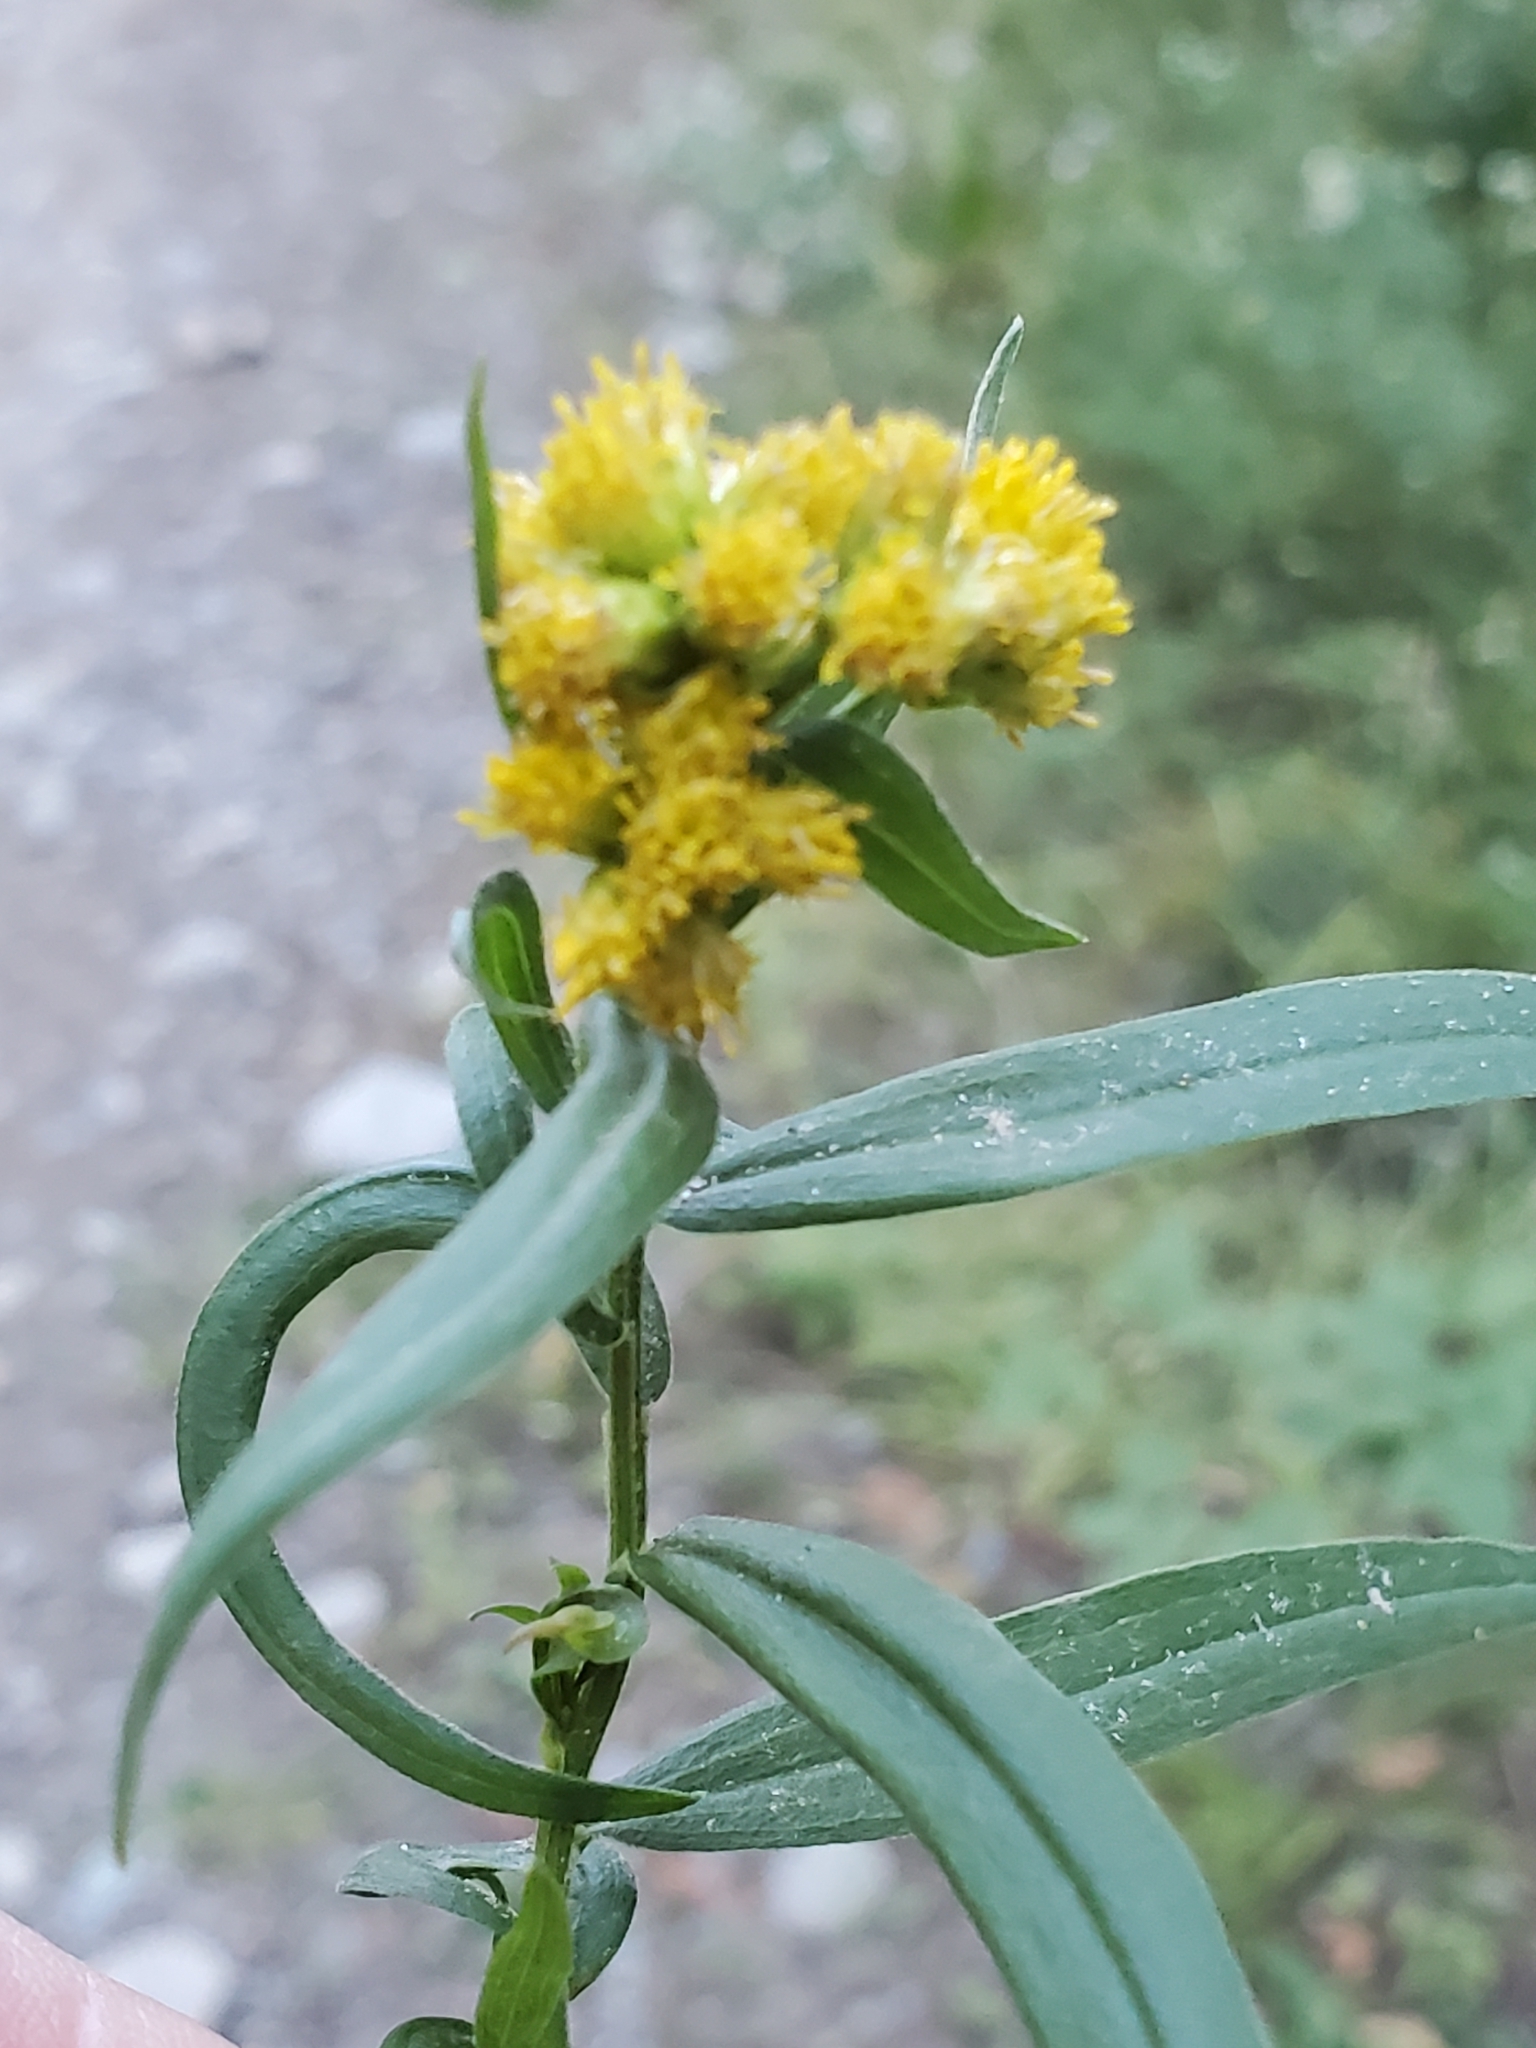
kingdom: Plantae
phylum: Tracheophyta
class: Magnoliopsida
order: Asterales
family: Asteraceae
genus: Euthamia
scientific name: Euthamia graminifolia
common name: Common goldentop
